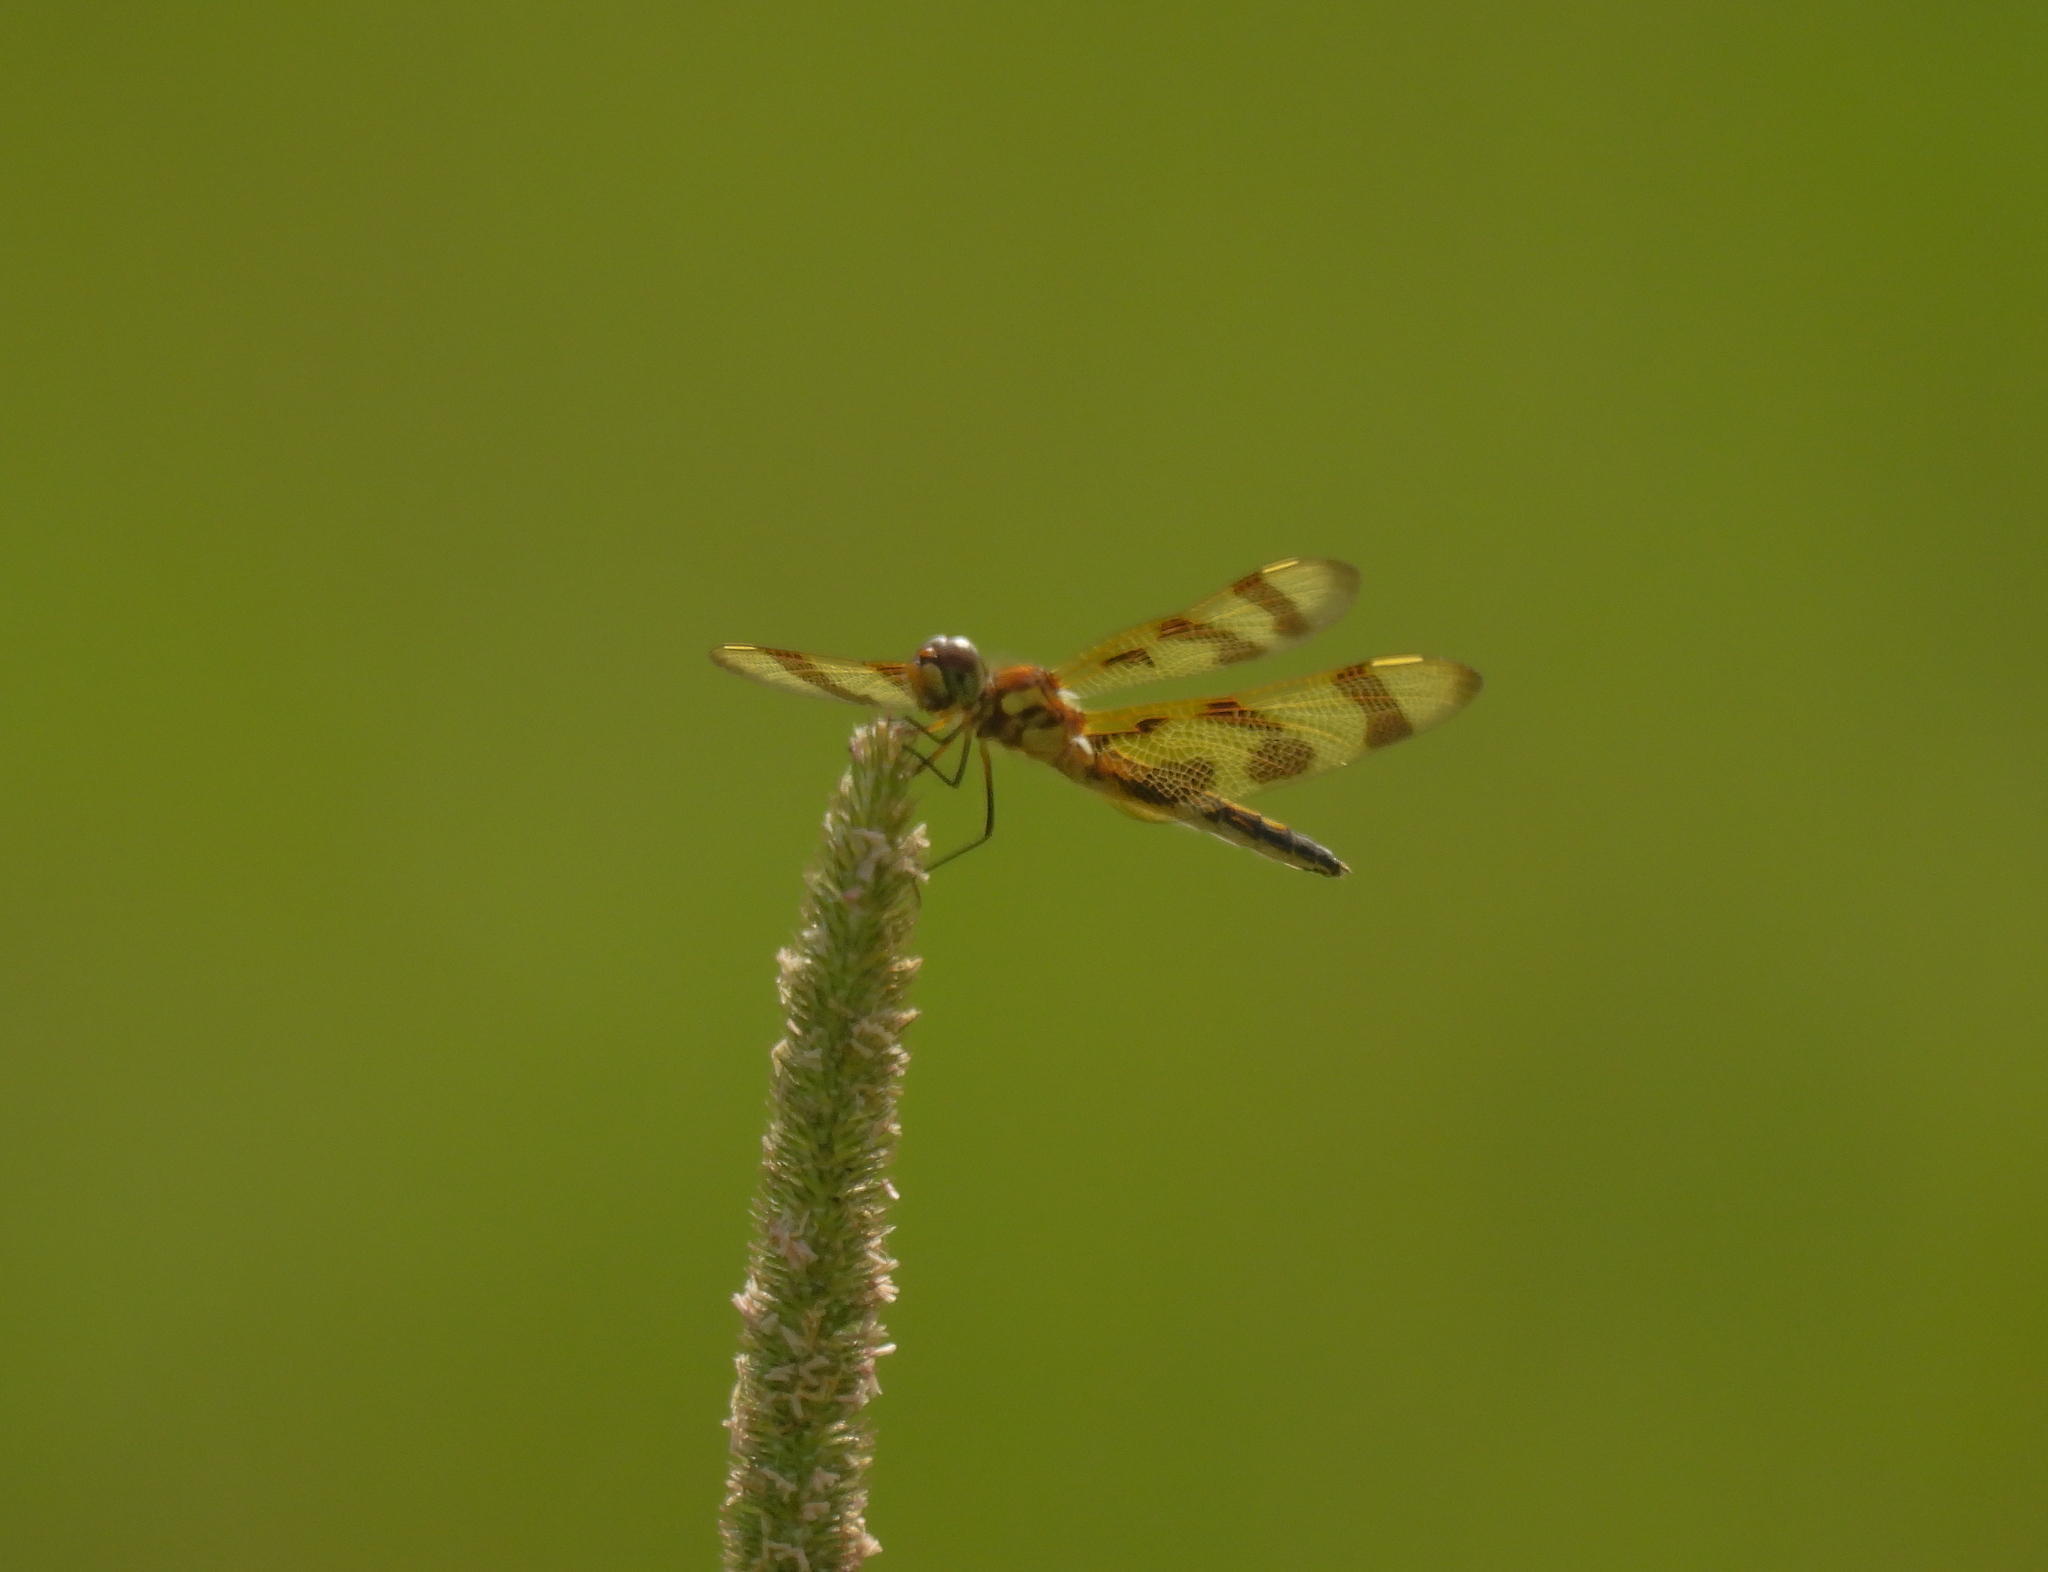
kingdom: Animalia
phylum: Arthropoda
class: Insecta
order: Odonata
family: Libellulidae
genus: Celithemis
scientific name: Celithemis eponina
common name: Halloween pennant
